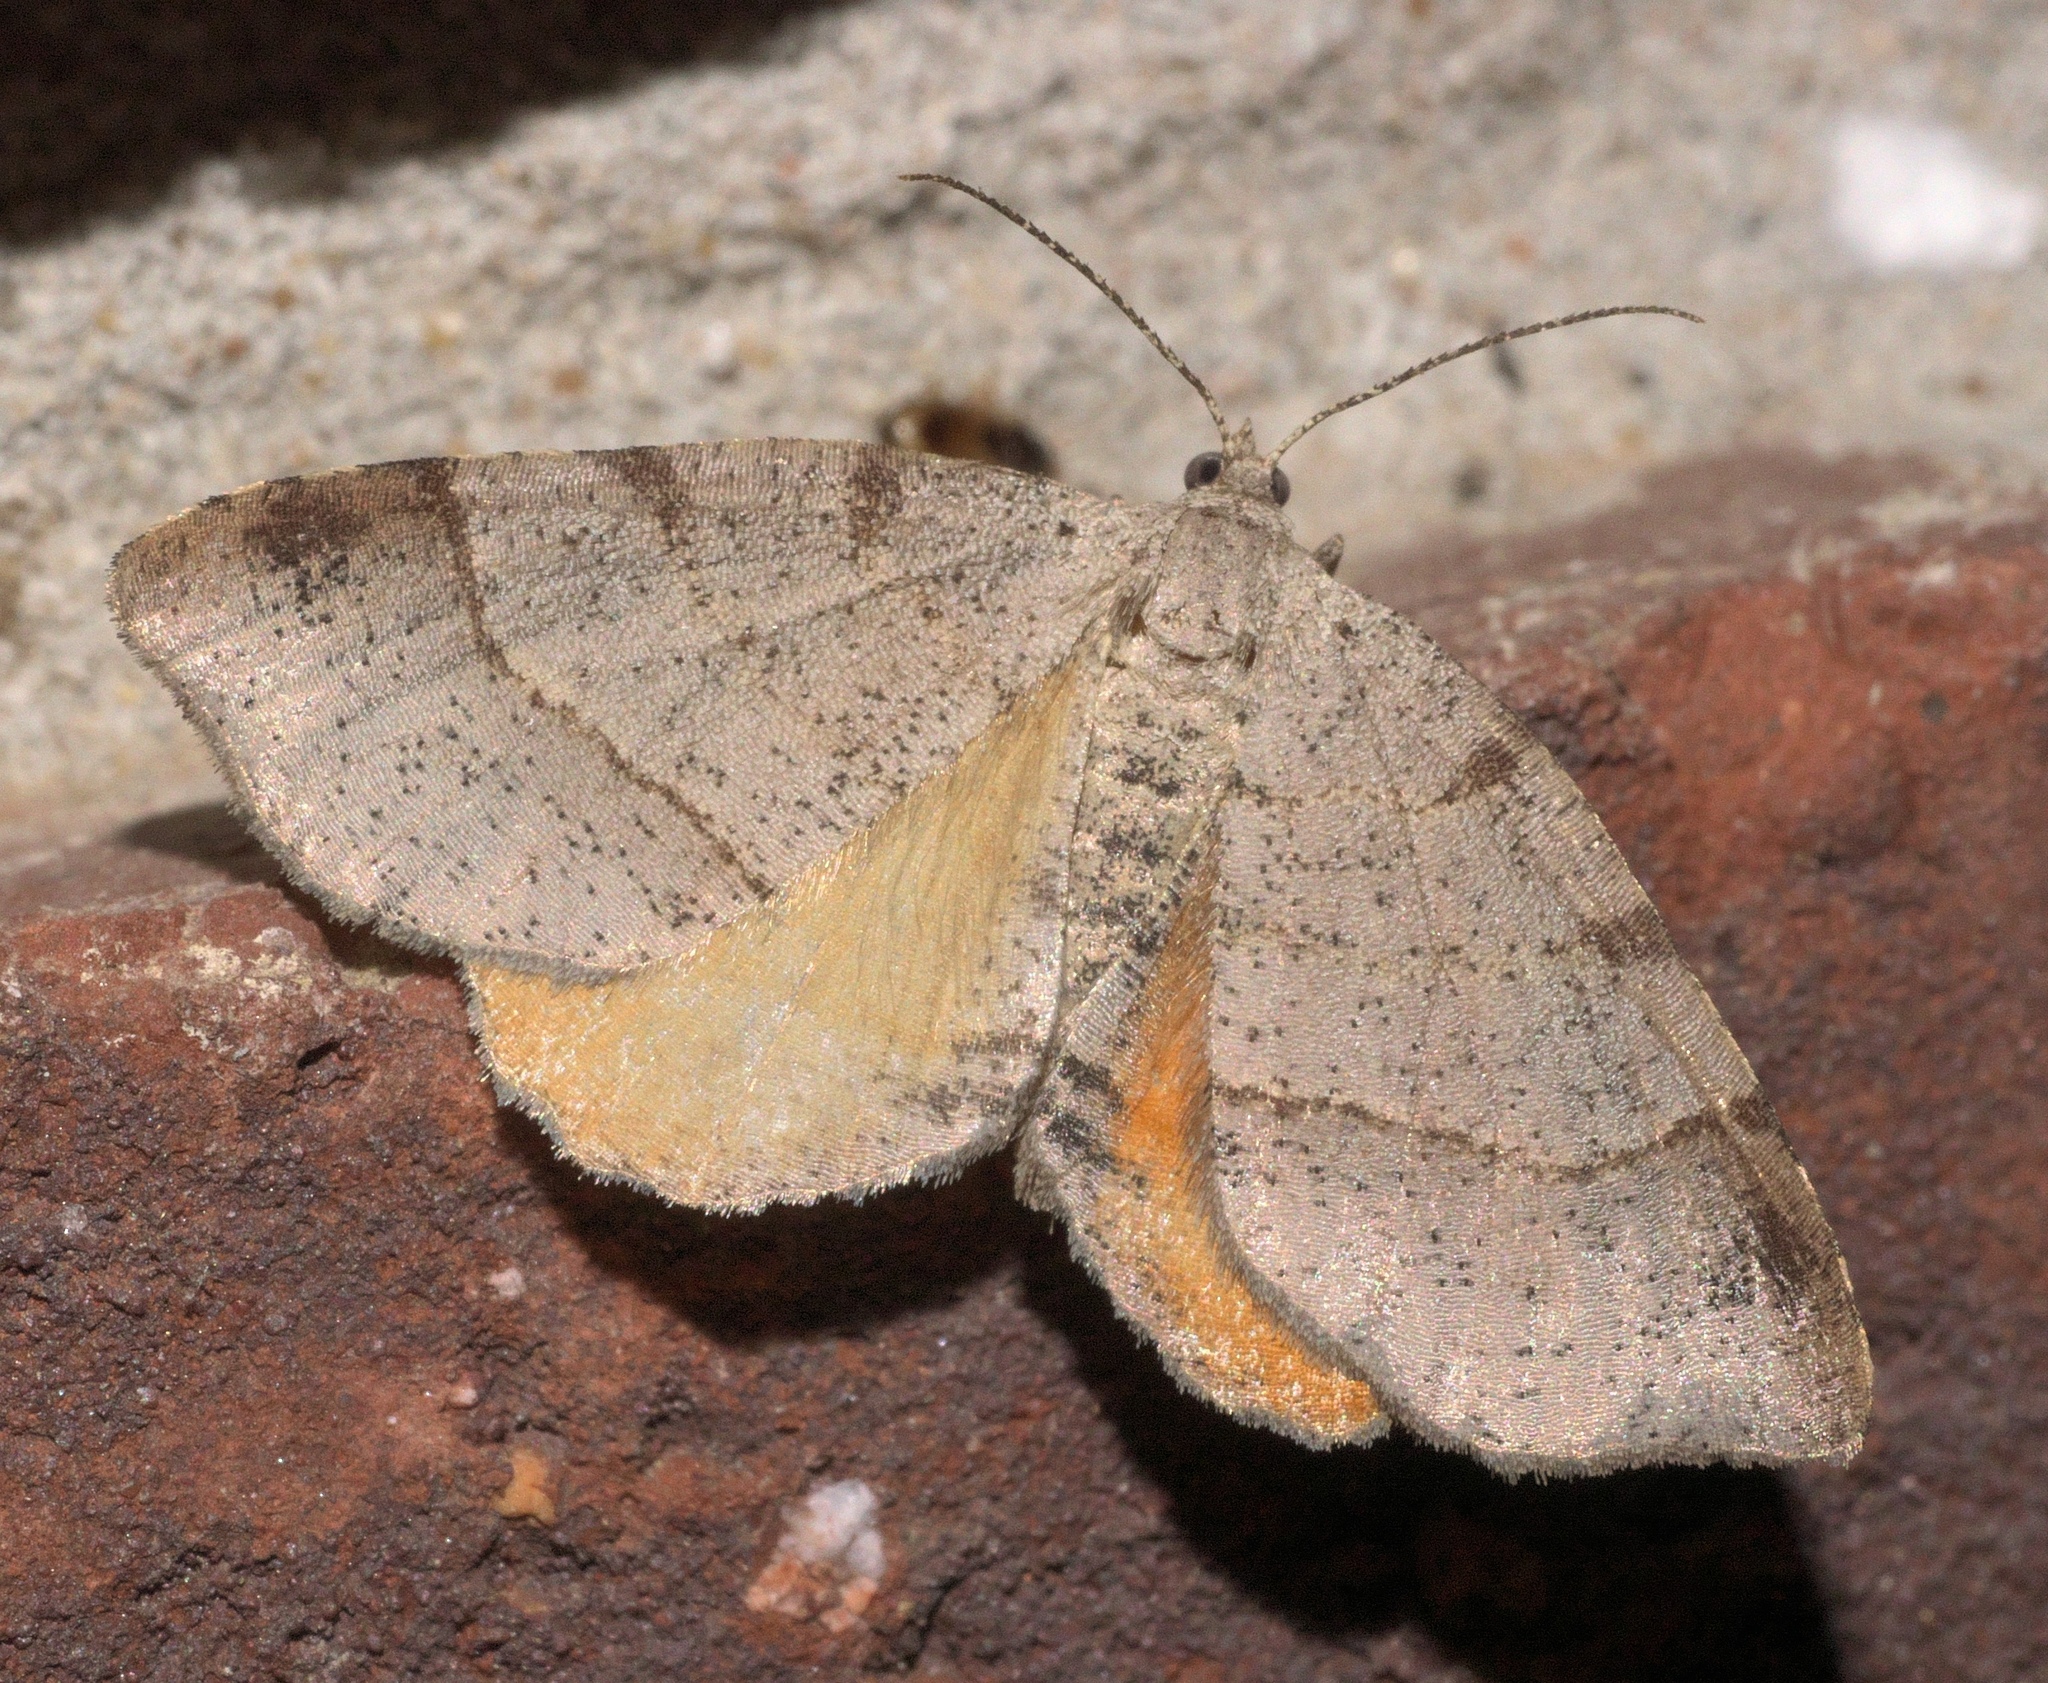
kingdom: Animalia
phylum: Arthropoda
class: Insecta
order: Lepidoptera
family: Geometridae
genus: Mellilla
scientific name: Mellilla xanthometata
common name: Orange wing moth
